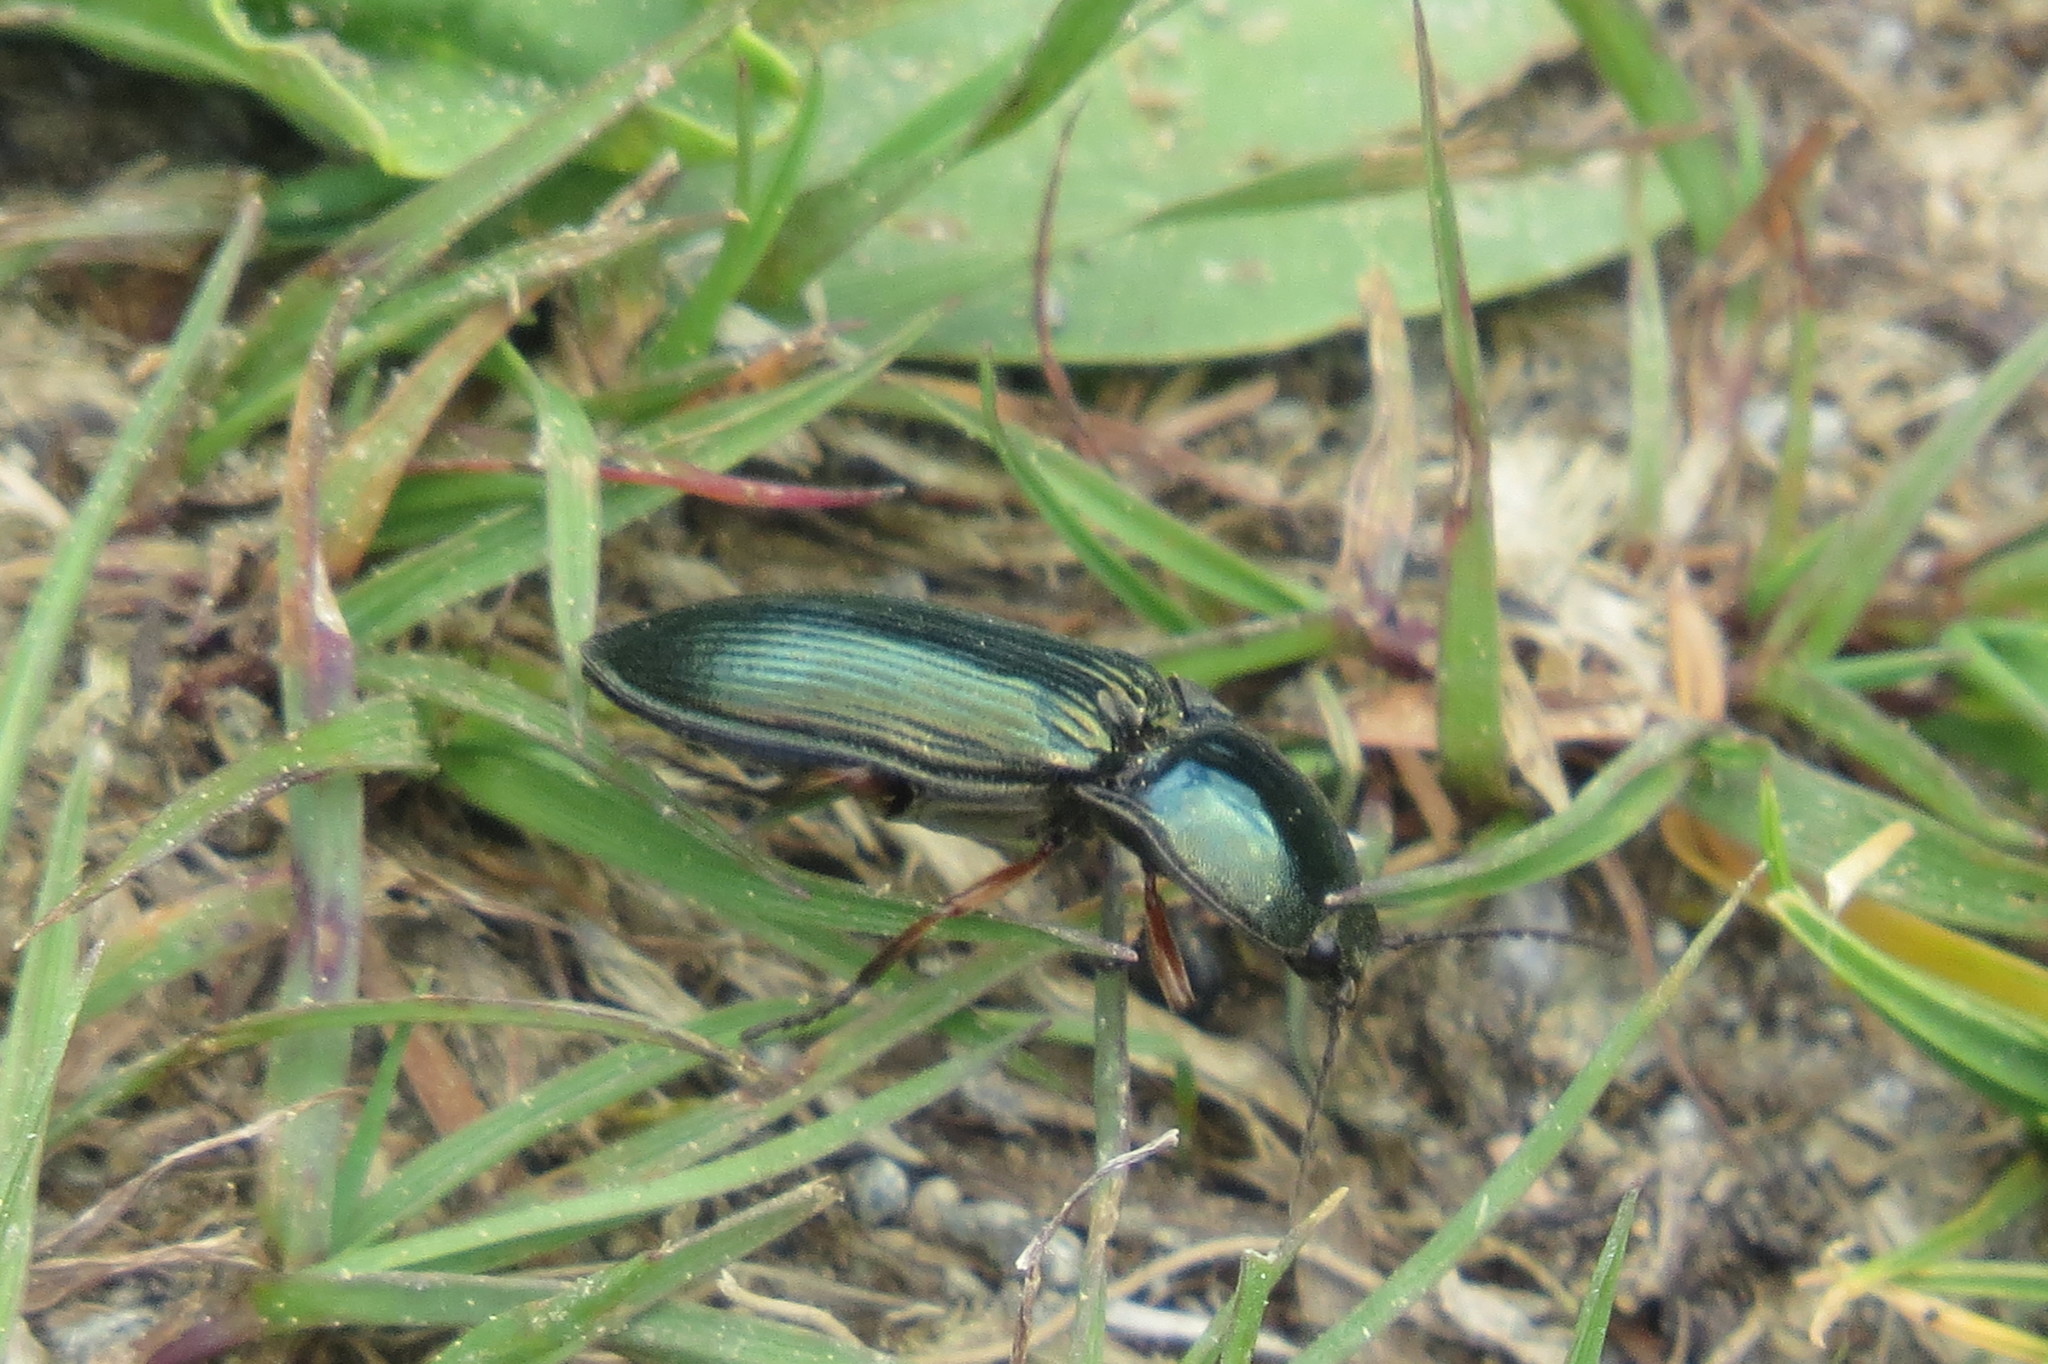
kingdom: Animalia
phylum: Arthropoda
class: Insecta
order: Coleoptera
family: Elateridae
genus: Selatosomus
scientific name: Selatosomus aeneus
